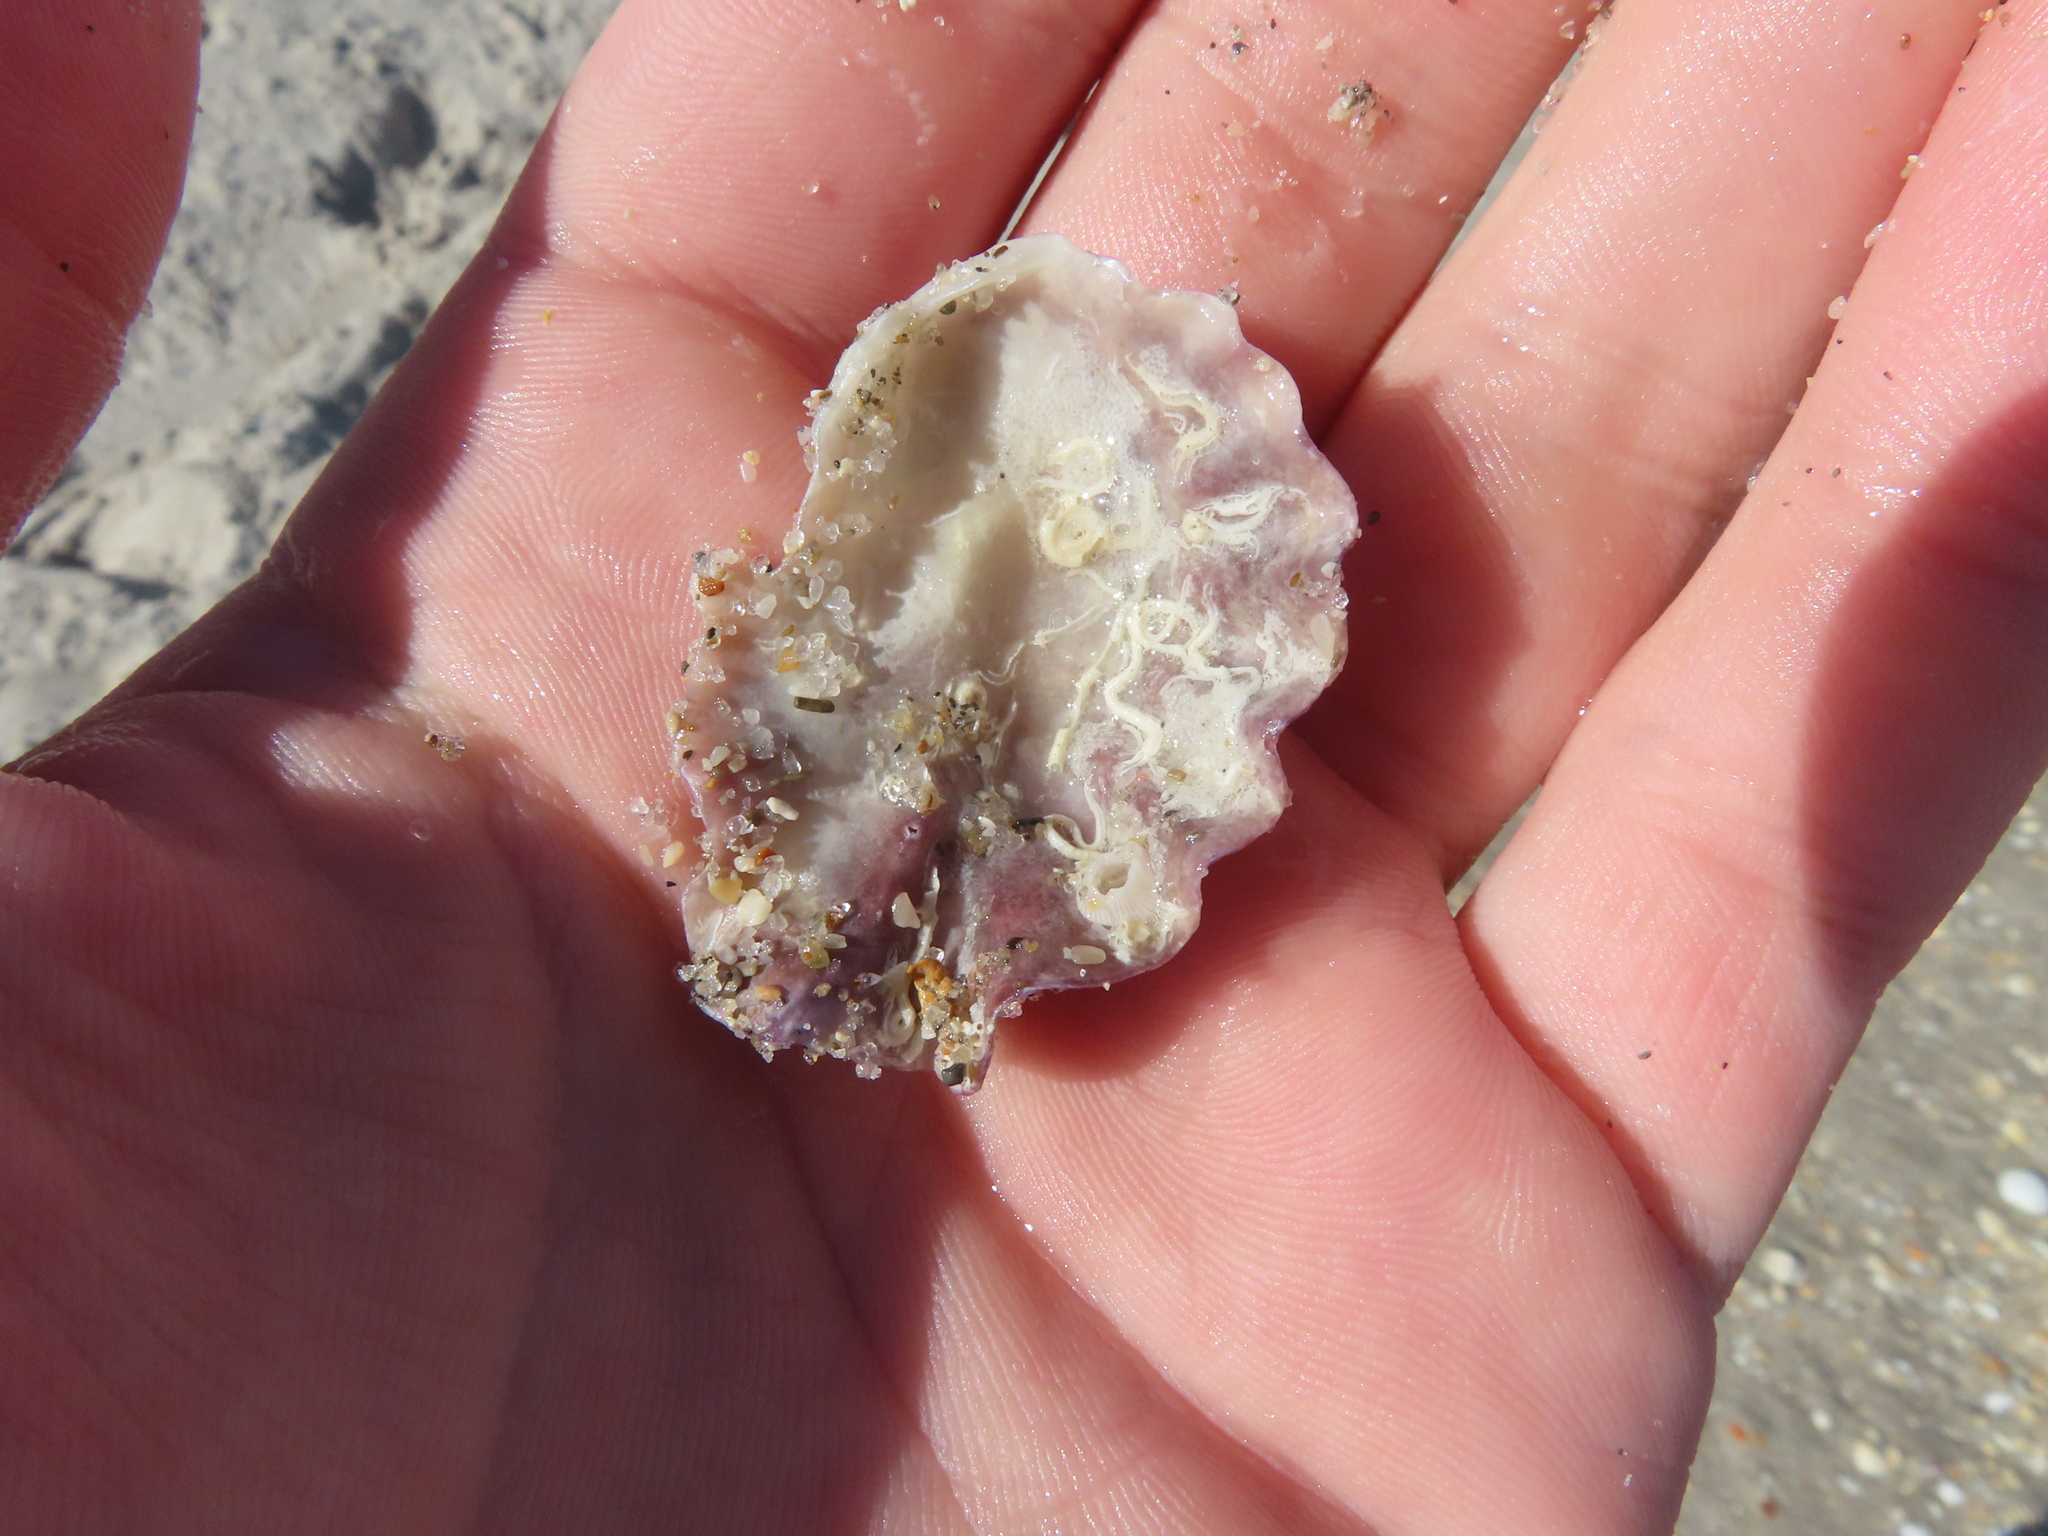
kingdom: Animalia
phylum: Mollusca
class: Bivalvia
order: Ostreida
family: Ostreidae
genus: Dendostrea
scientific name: Dendostrea frons
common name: Frond oyster
